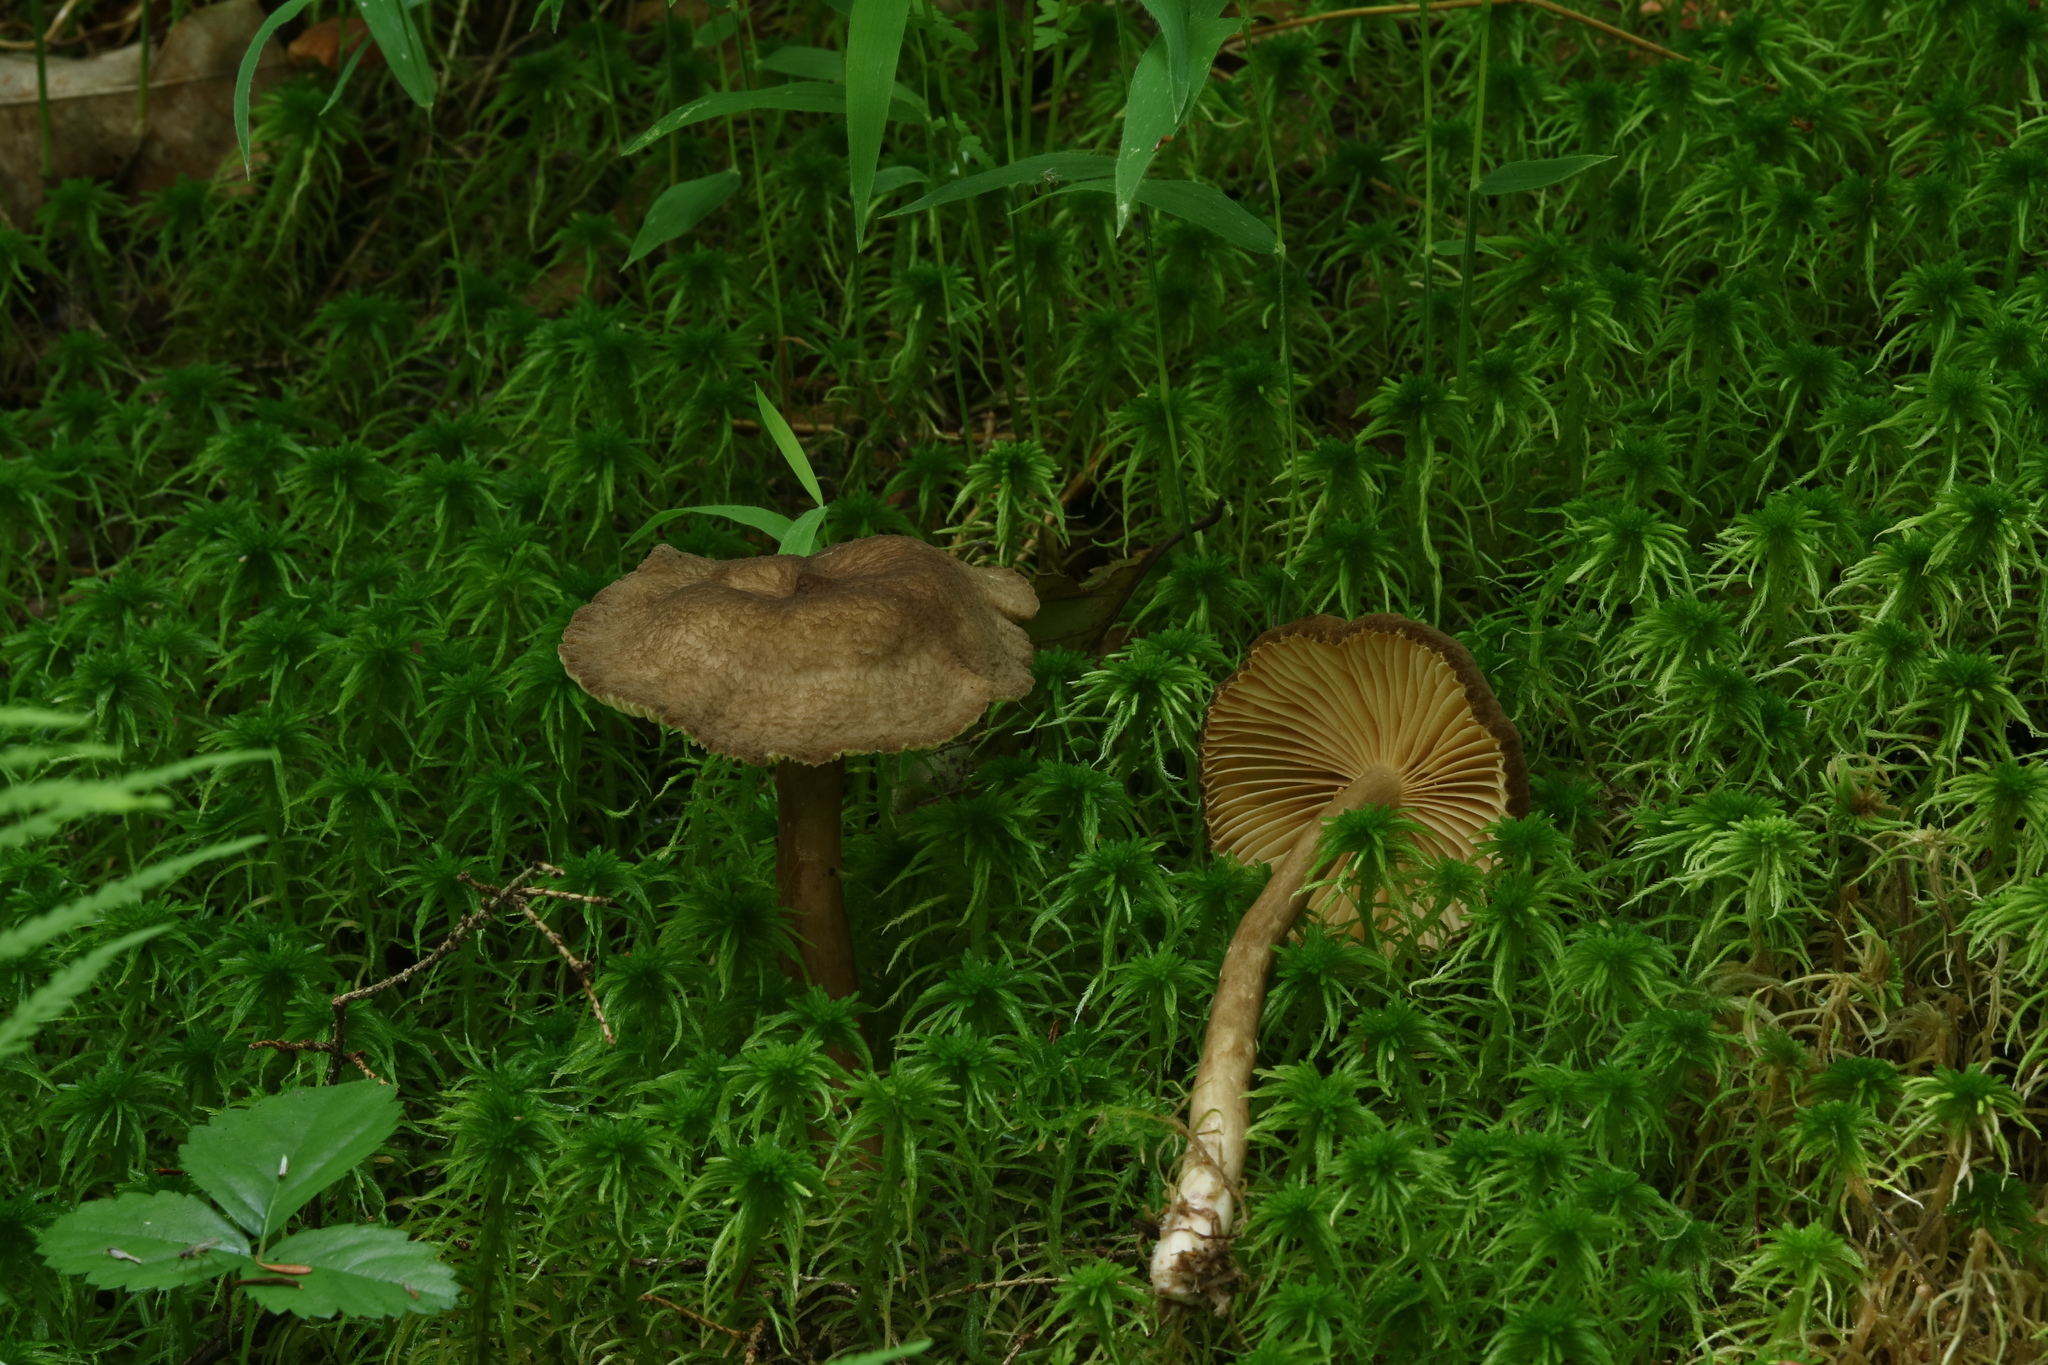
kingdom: Fungi
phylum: Basidiomycota
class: Agaricomycetes
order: Russulales
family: Russulaceae
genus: Lactarius
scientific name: Lactarius lignyotus
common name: Velvet milkcap
